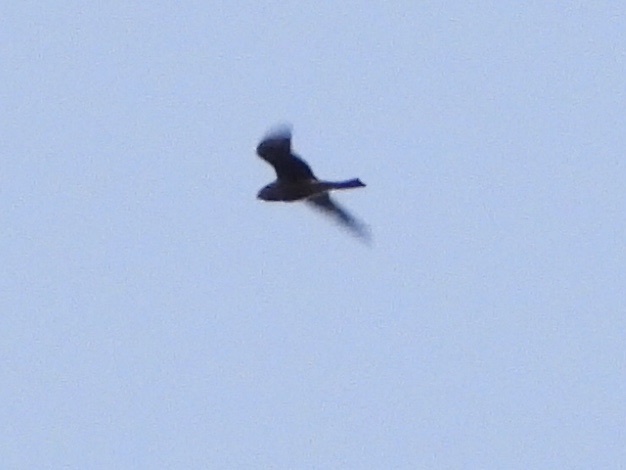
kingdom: Animalia
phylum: Chordata
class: Aves
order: Caprimulgiformes
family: Caprimulgidae
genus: Chordeiles
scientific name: Chordeiles minor
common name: Common nighthawk
